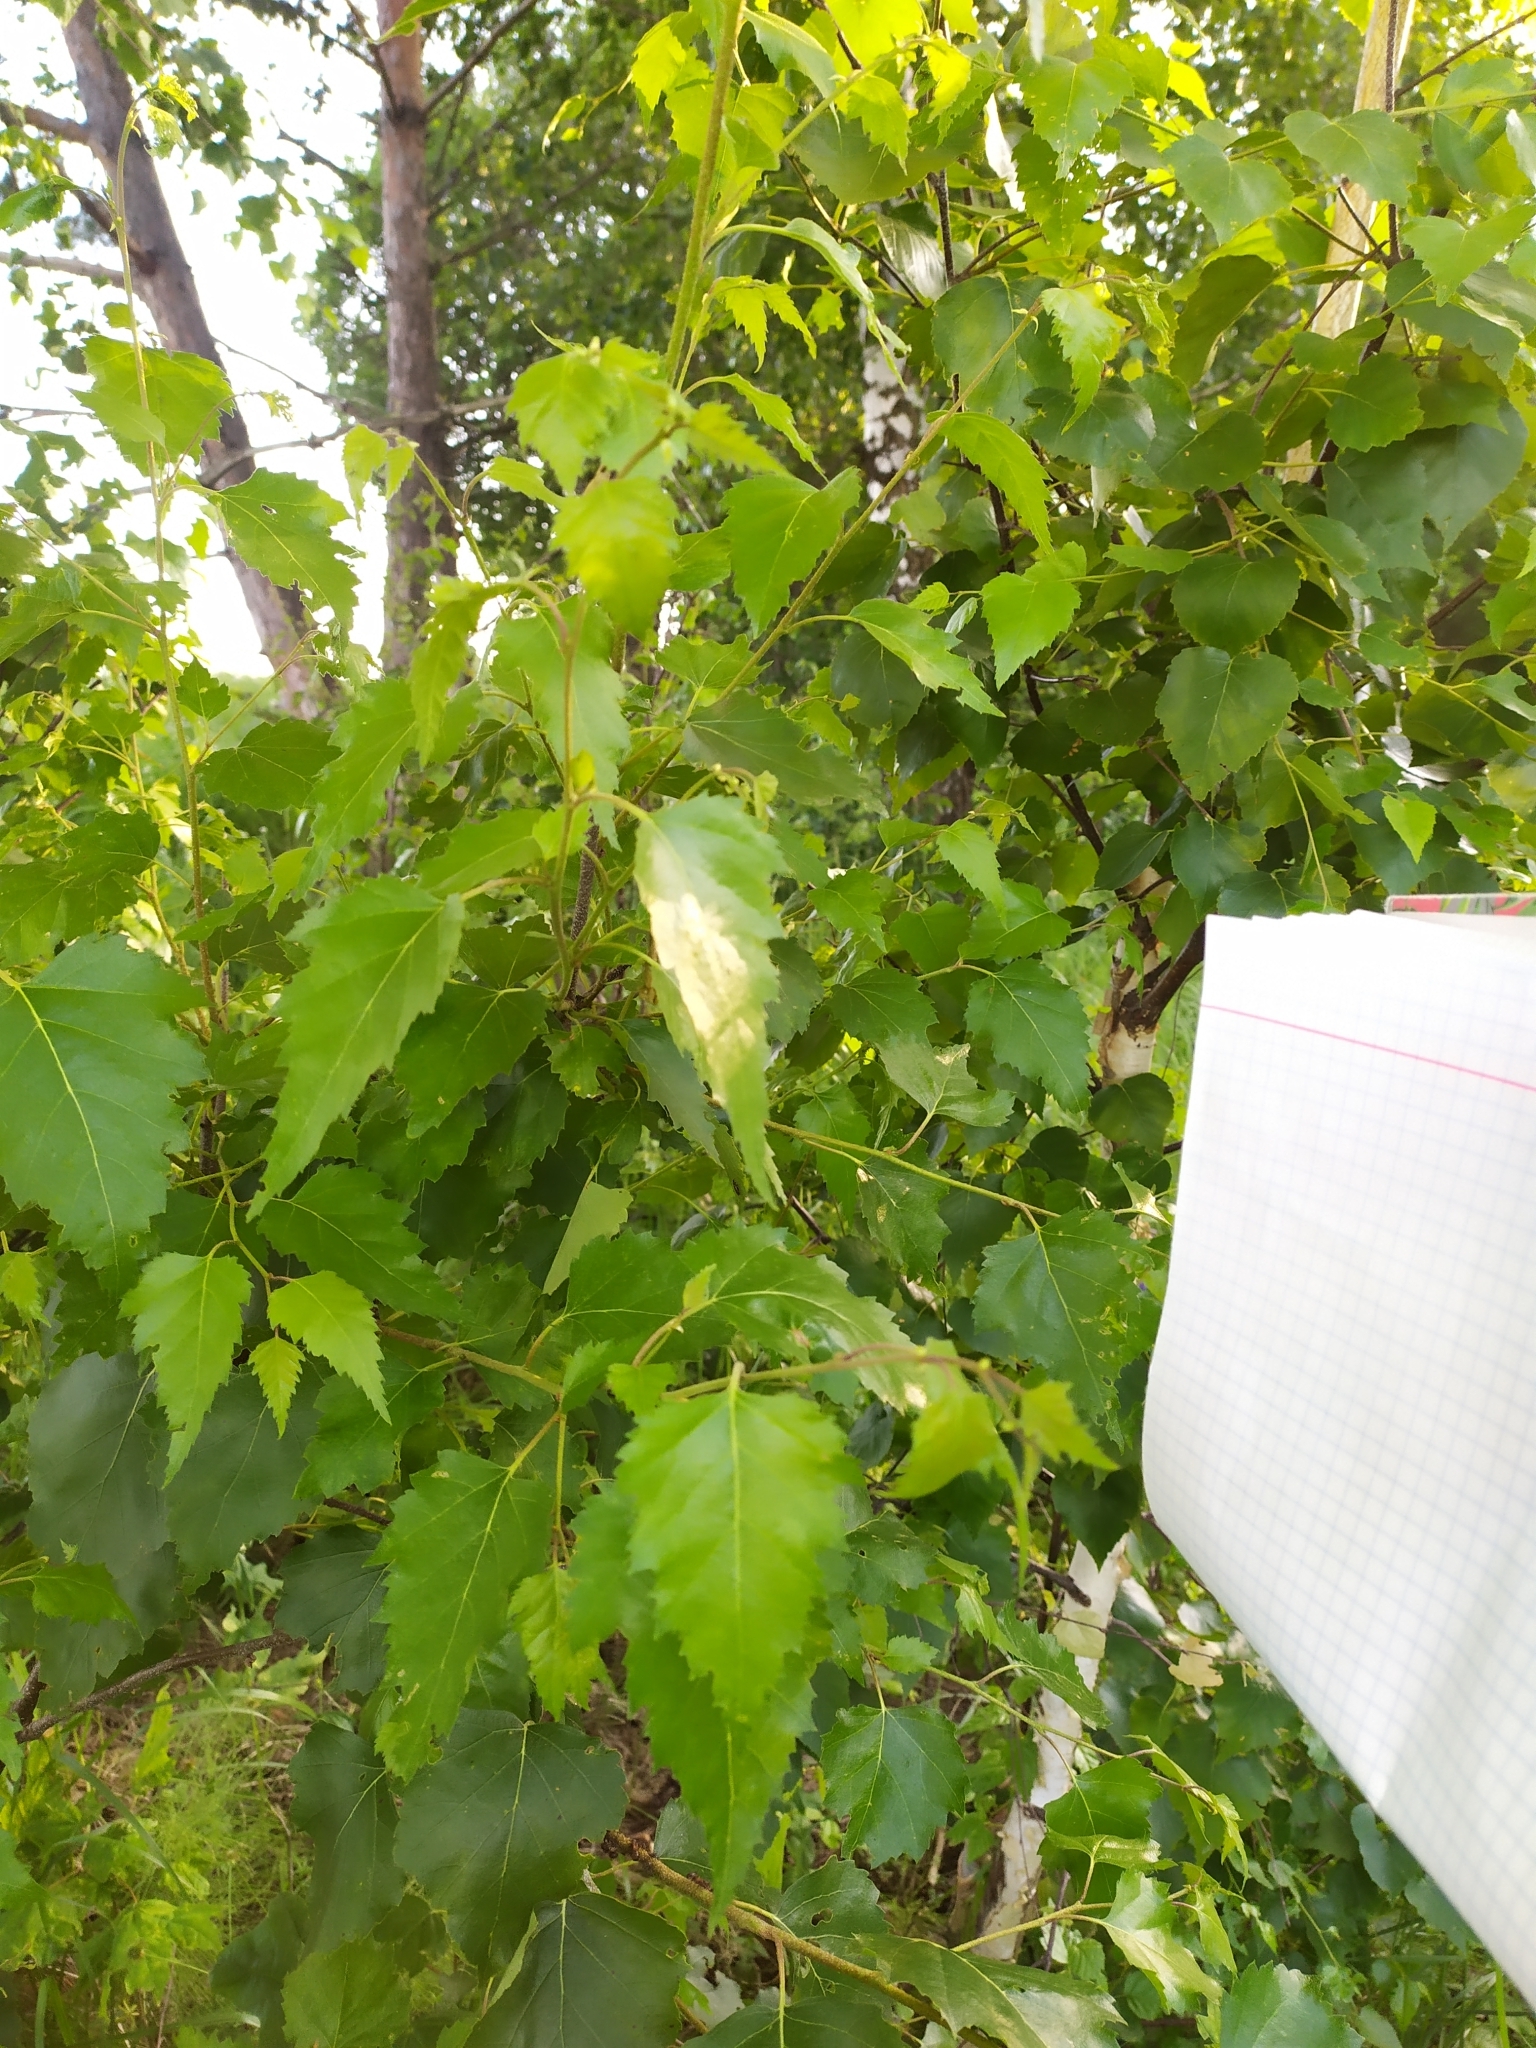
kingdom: Plantae
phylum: Tracheophyta
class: Magnoliopsida
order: Fagales
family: Betulaceae
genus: Betula
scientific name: Betula pendula
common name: Silver birch
